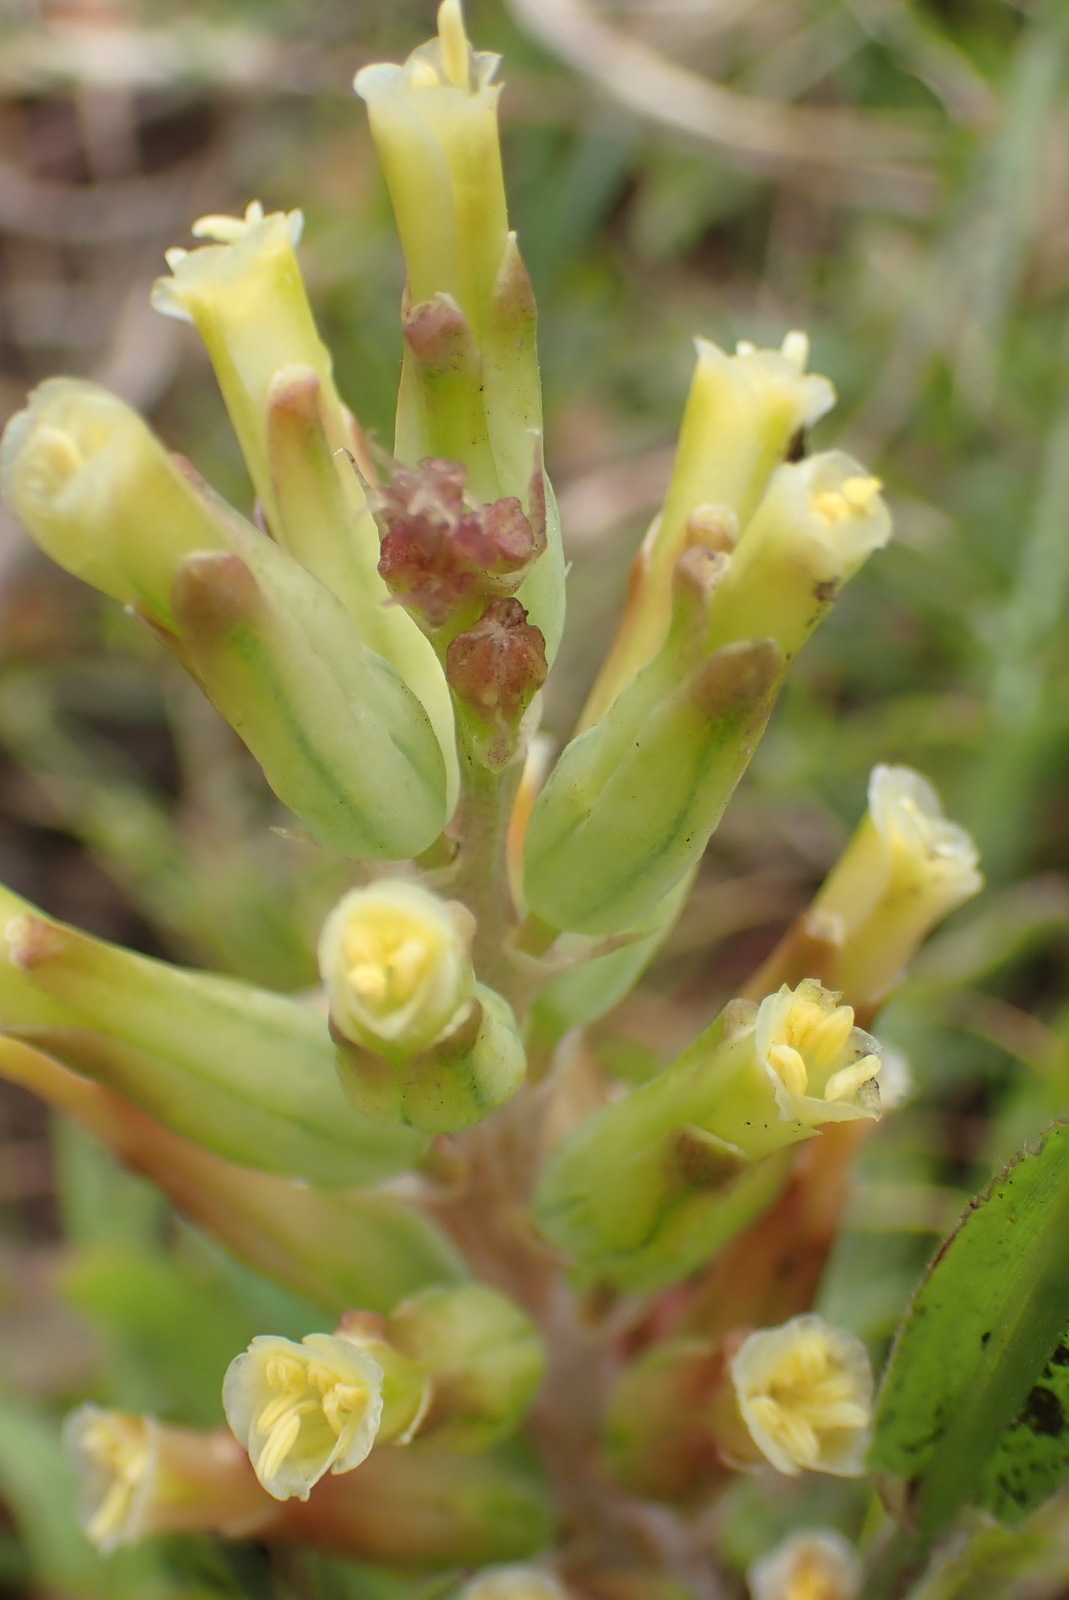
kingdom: Plantae
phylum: Tracheophyta
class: Liliopsida
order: Asparagales
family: Asparagaceae
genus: Lachenalia
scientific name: Lachenalia algoensis
